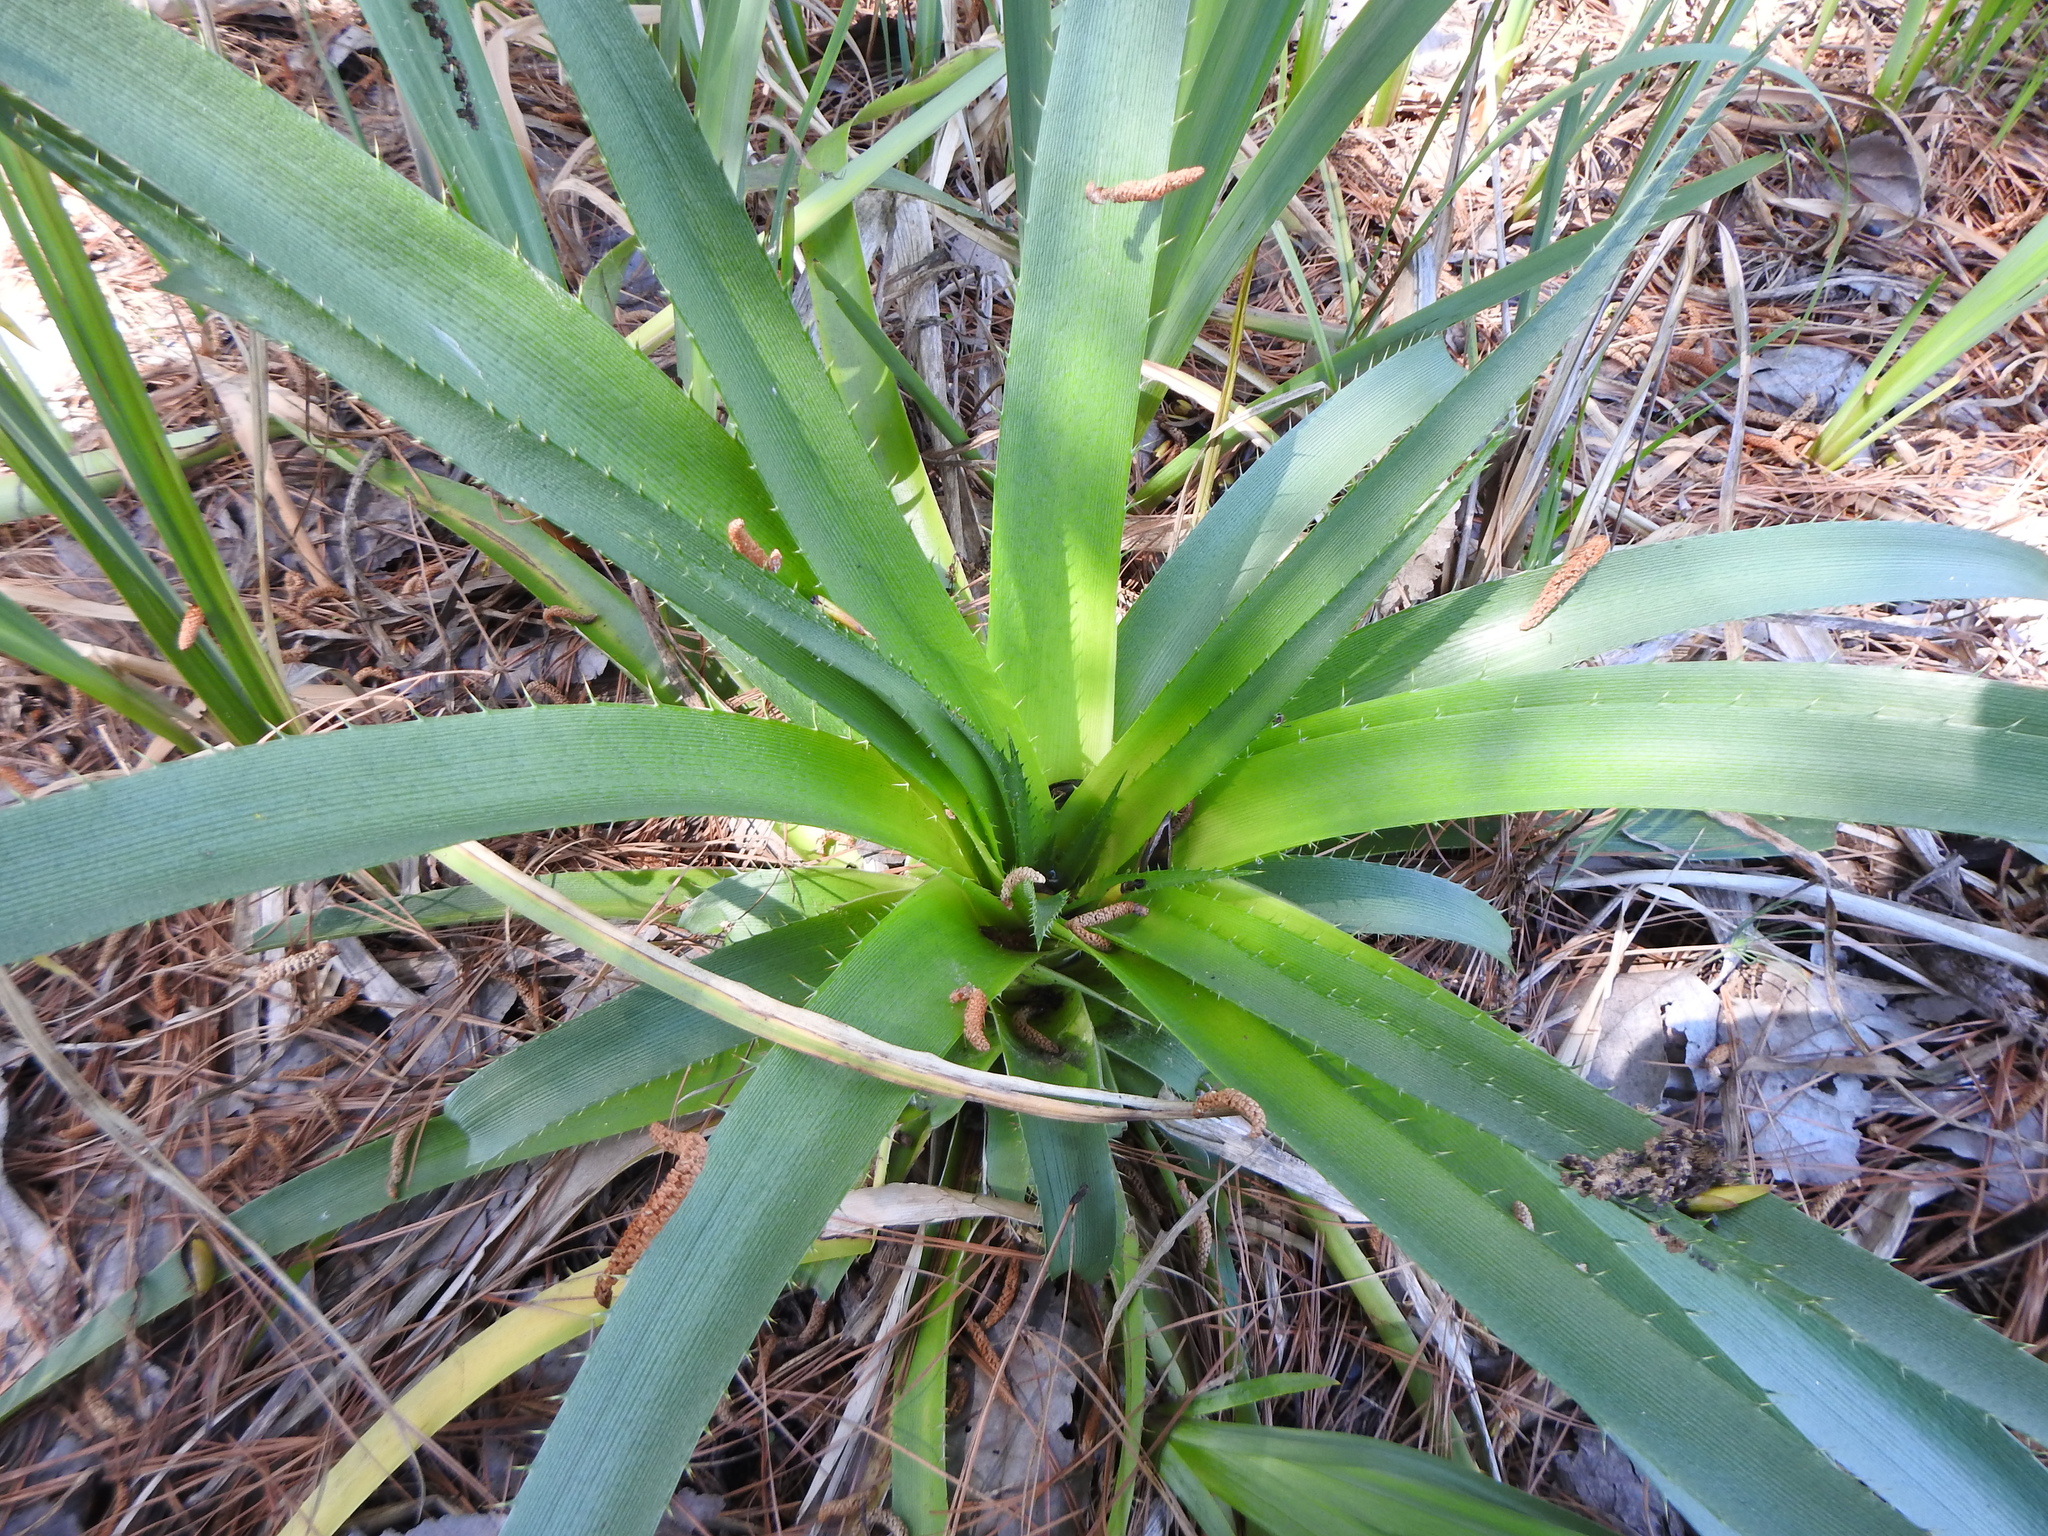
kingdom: Plantae
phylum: Tracheophyta
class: Magnoliopsida
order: Apiales
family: Apiaceae
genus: Eryngium
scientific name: Eryngium humboldtii
